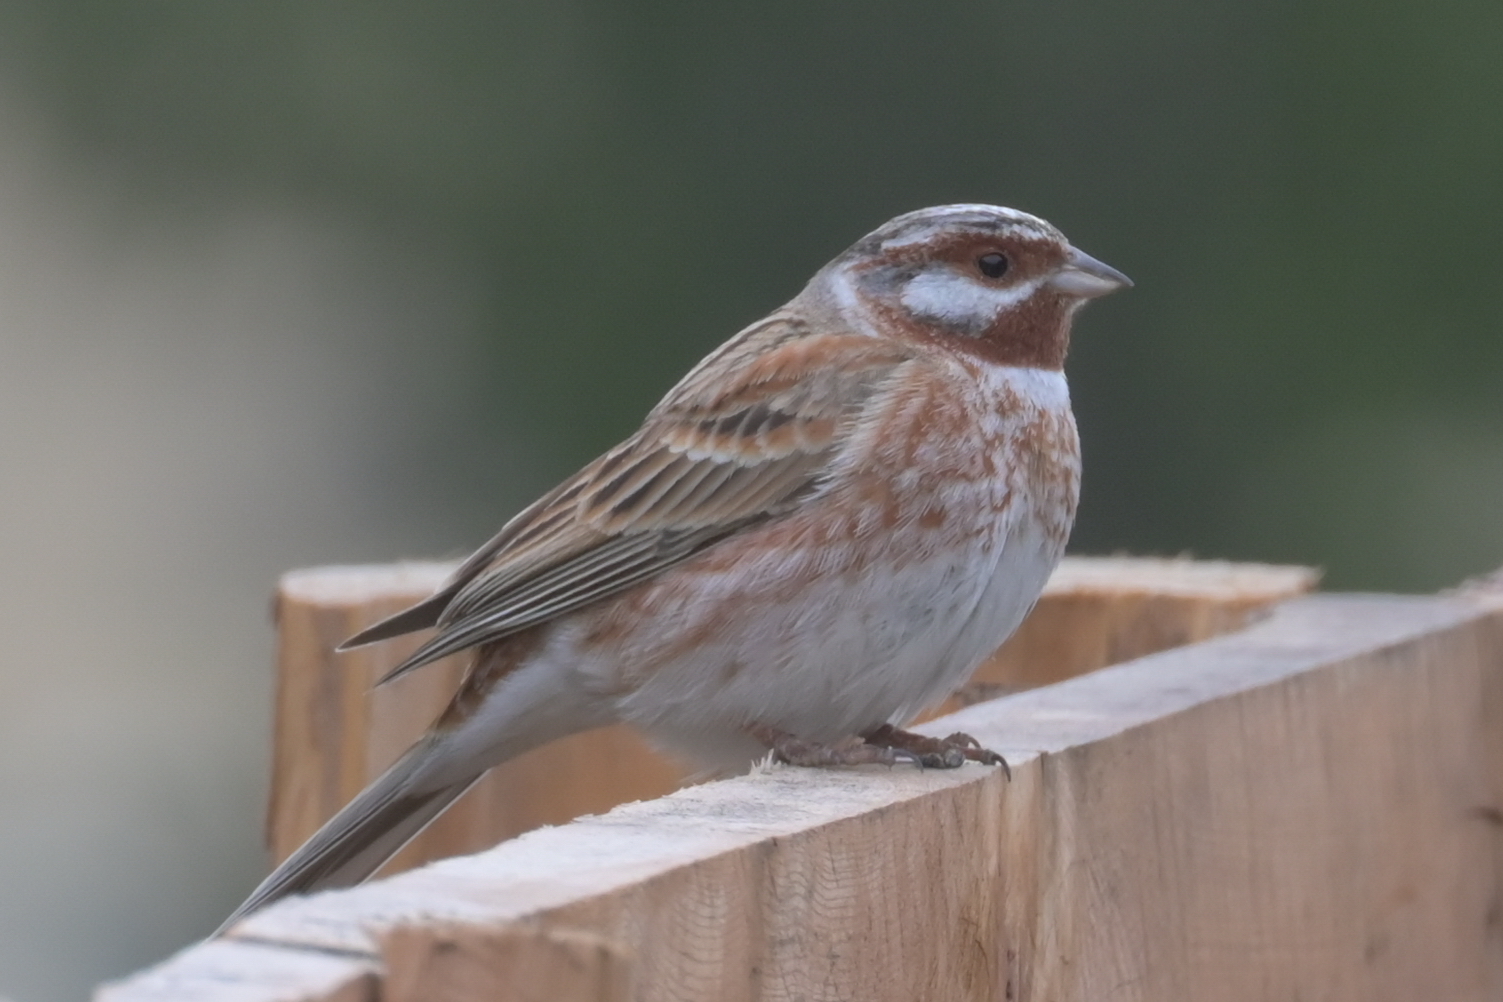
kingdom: Animalia
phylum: Chordata
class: Aves
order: Passeriformes
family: Emberizidae
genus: Emberiza
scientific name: Emberiza leucocephalos
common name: Pine bunting
